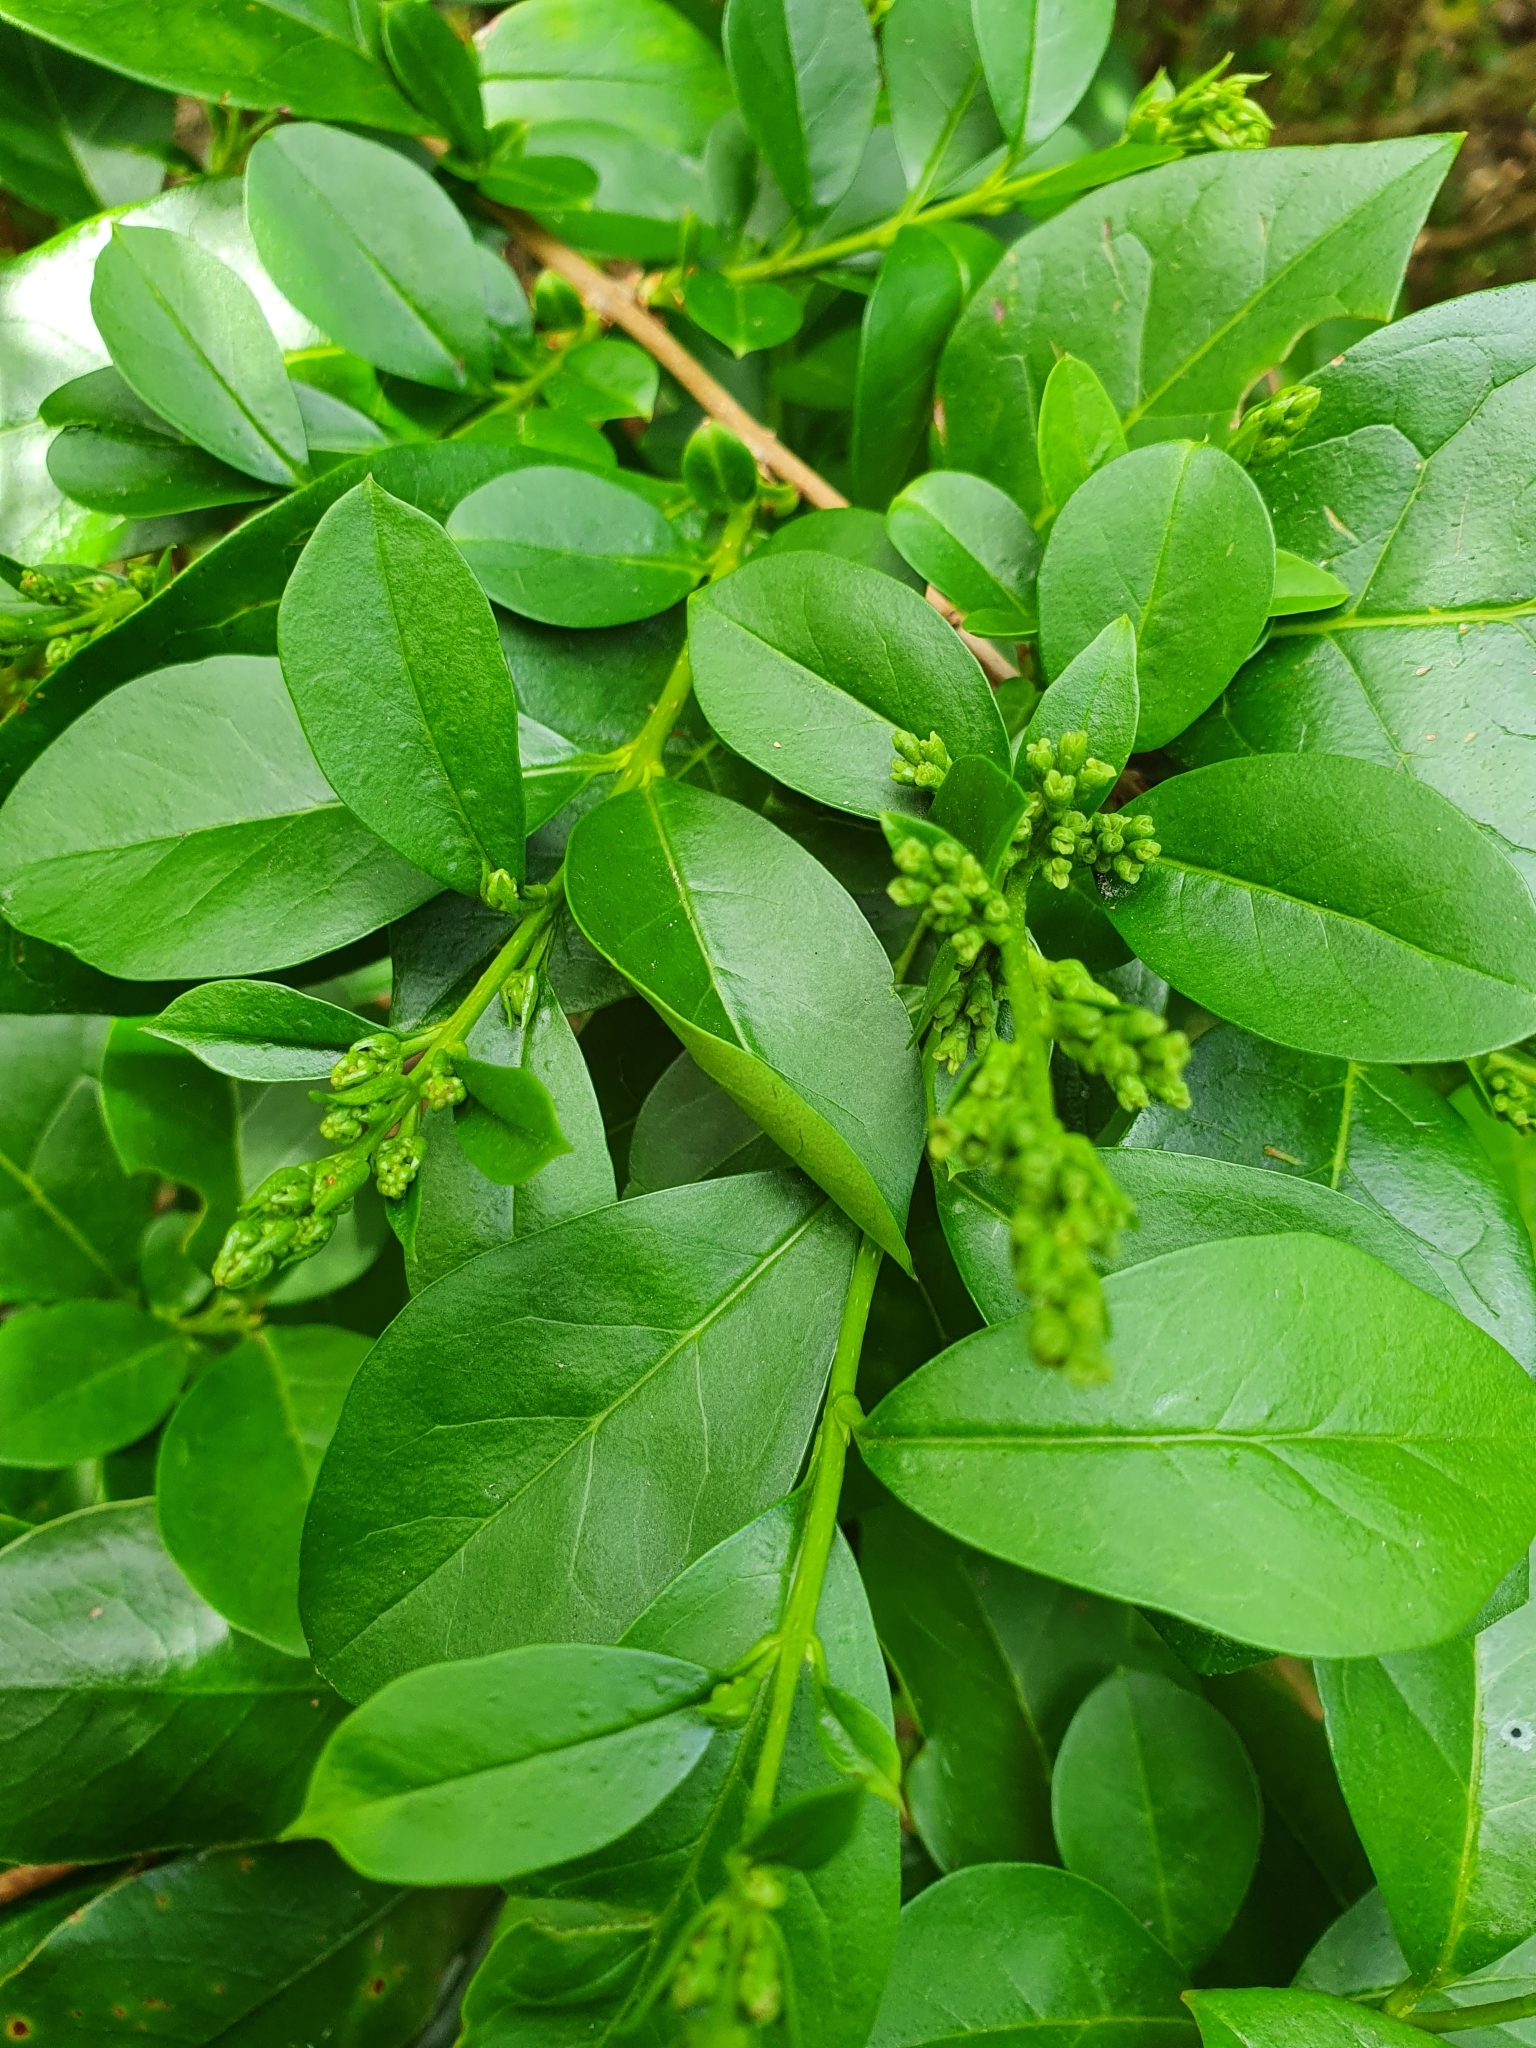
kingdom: Plantae
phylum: Tracheophyta
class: Magnoliopsida
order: Lamiales
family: Oleaceae
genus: Ligustrum
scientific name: Ligustrum vulgare
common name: Wild privet
